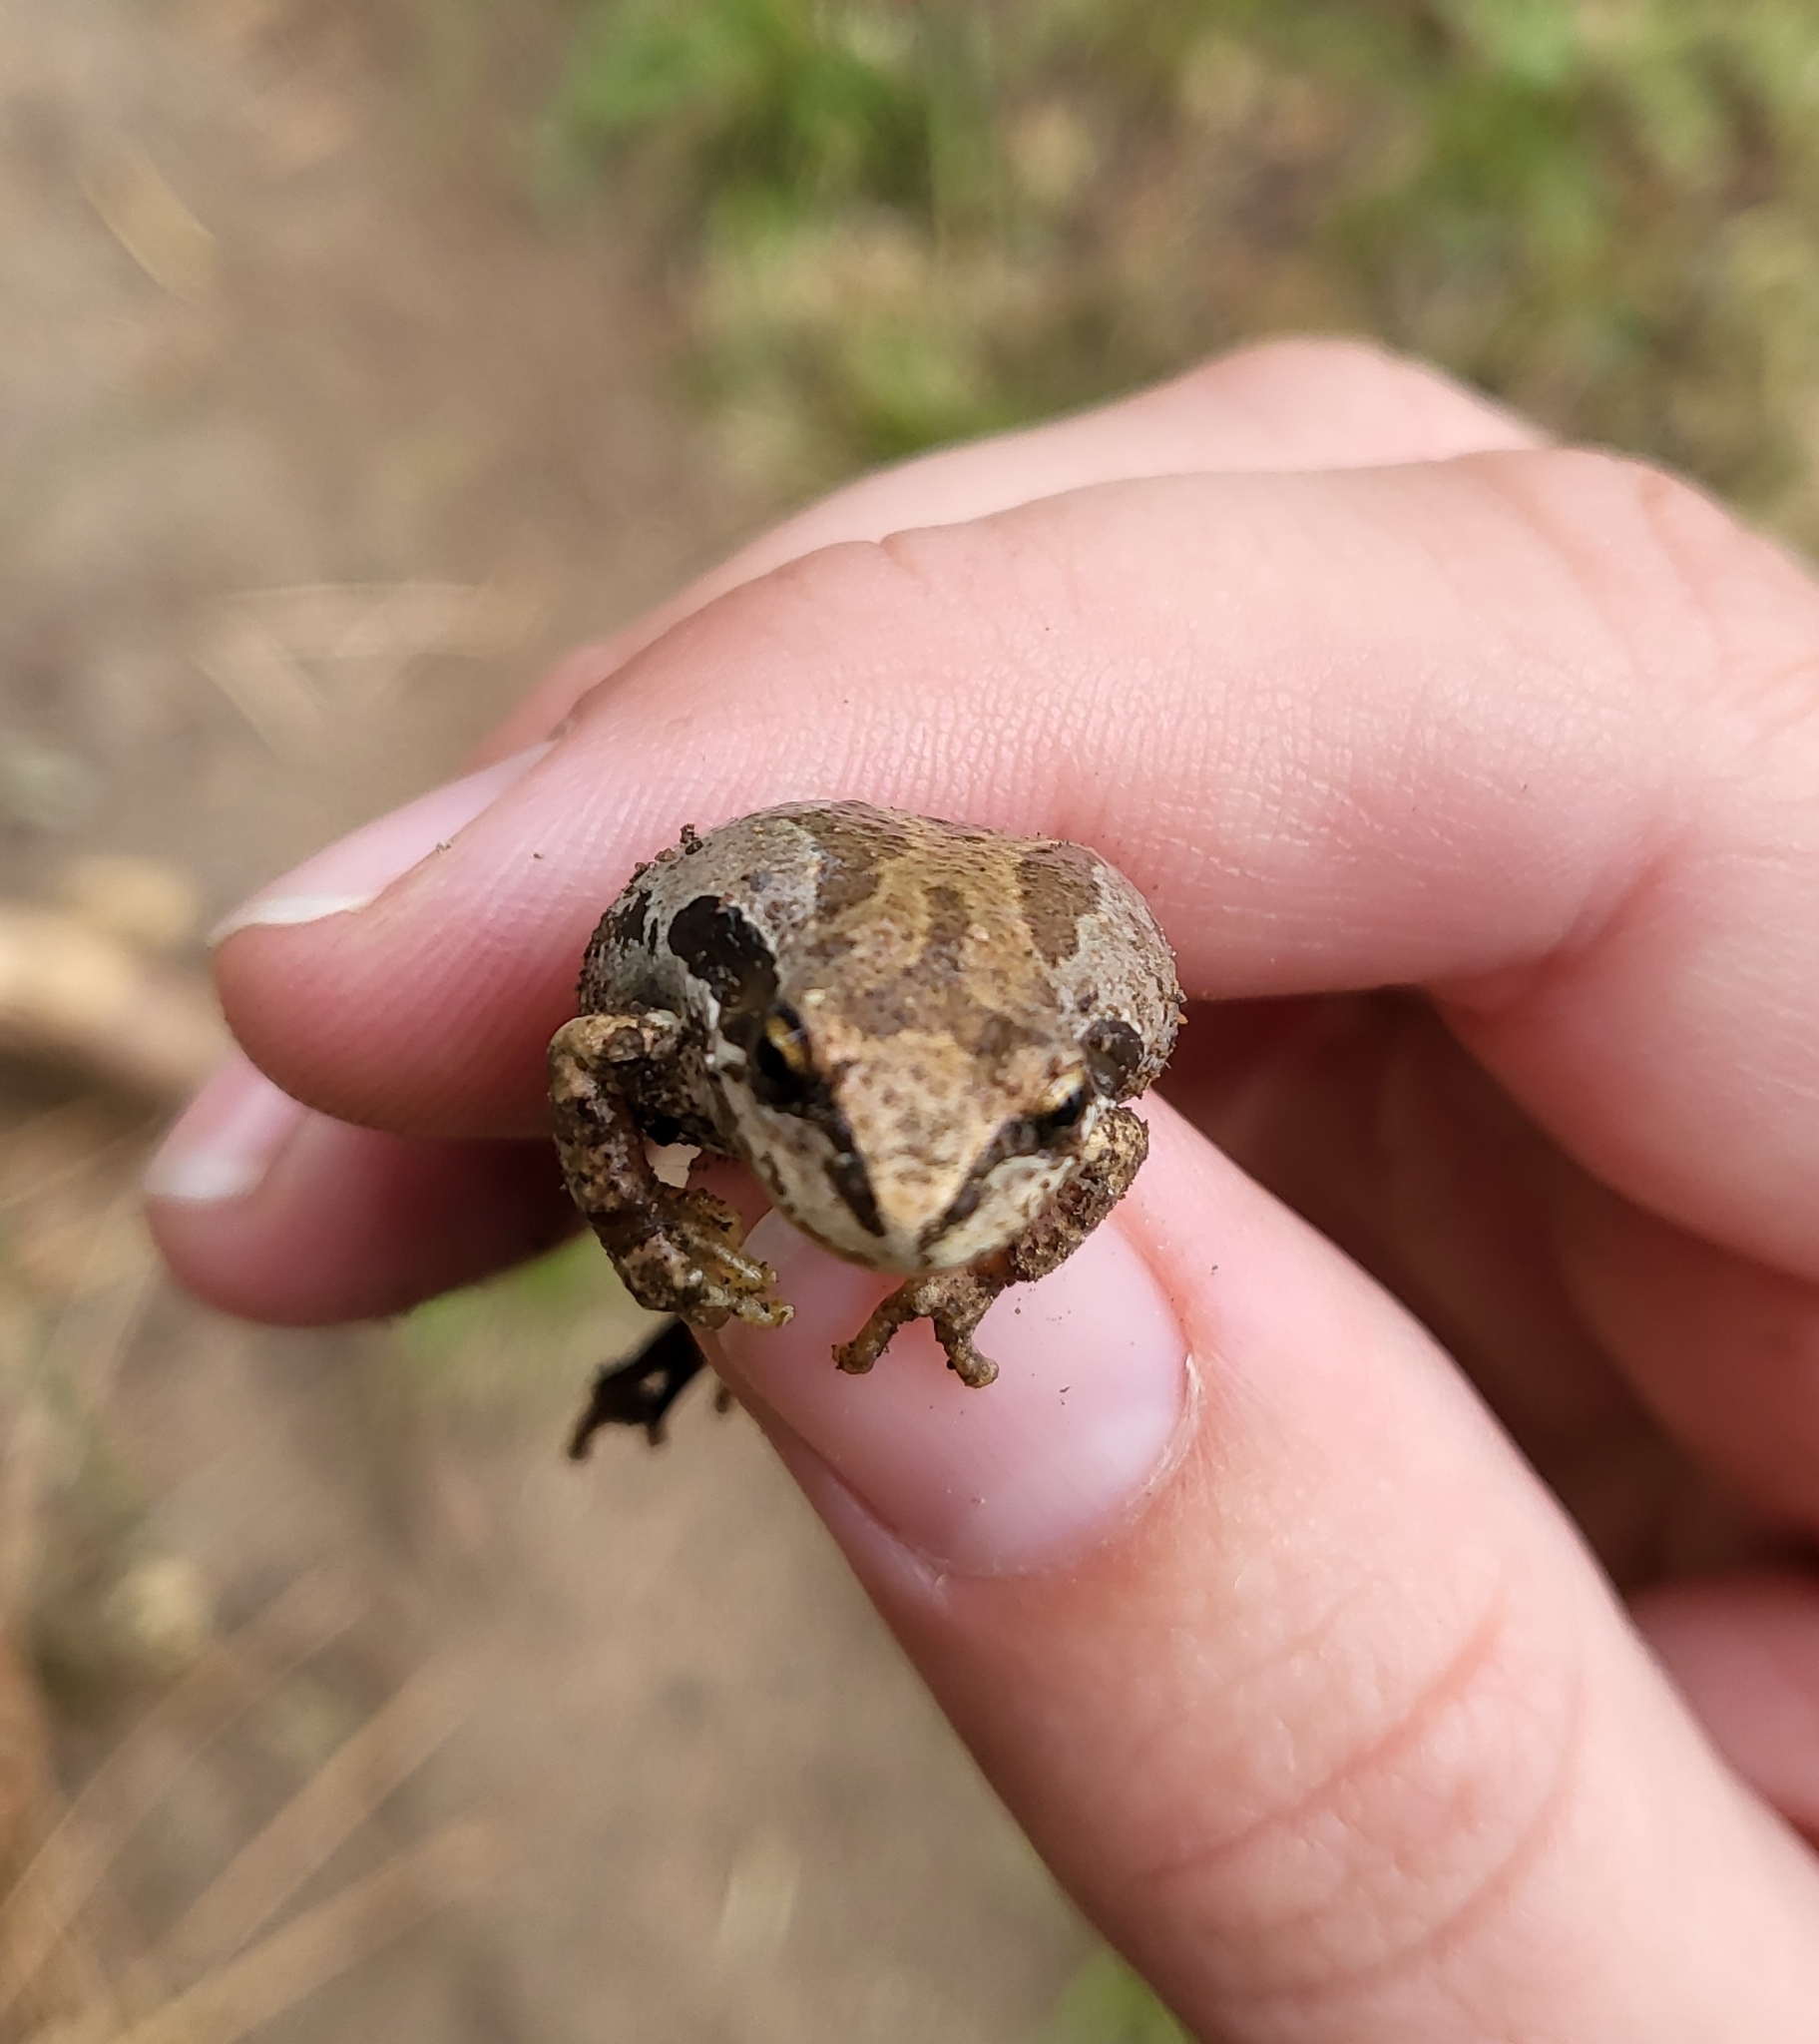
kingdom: Animalia
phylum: Chordata
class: Amphibia
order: Anura
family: Hylidae
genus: Pseudacris
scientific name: Pseudacris regilla
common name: Pacific chorus frog
